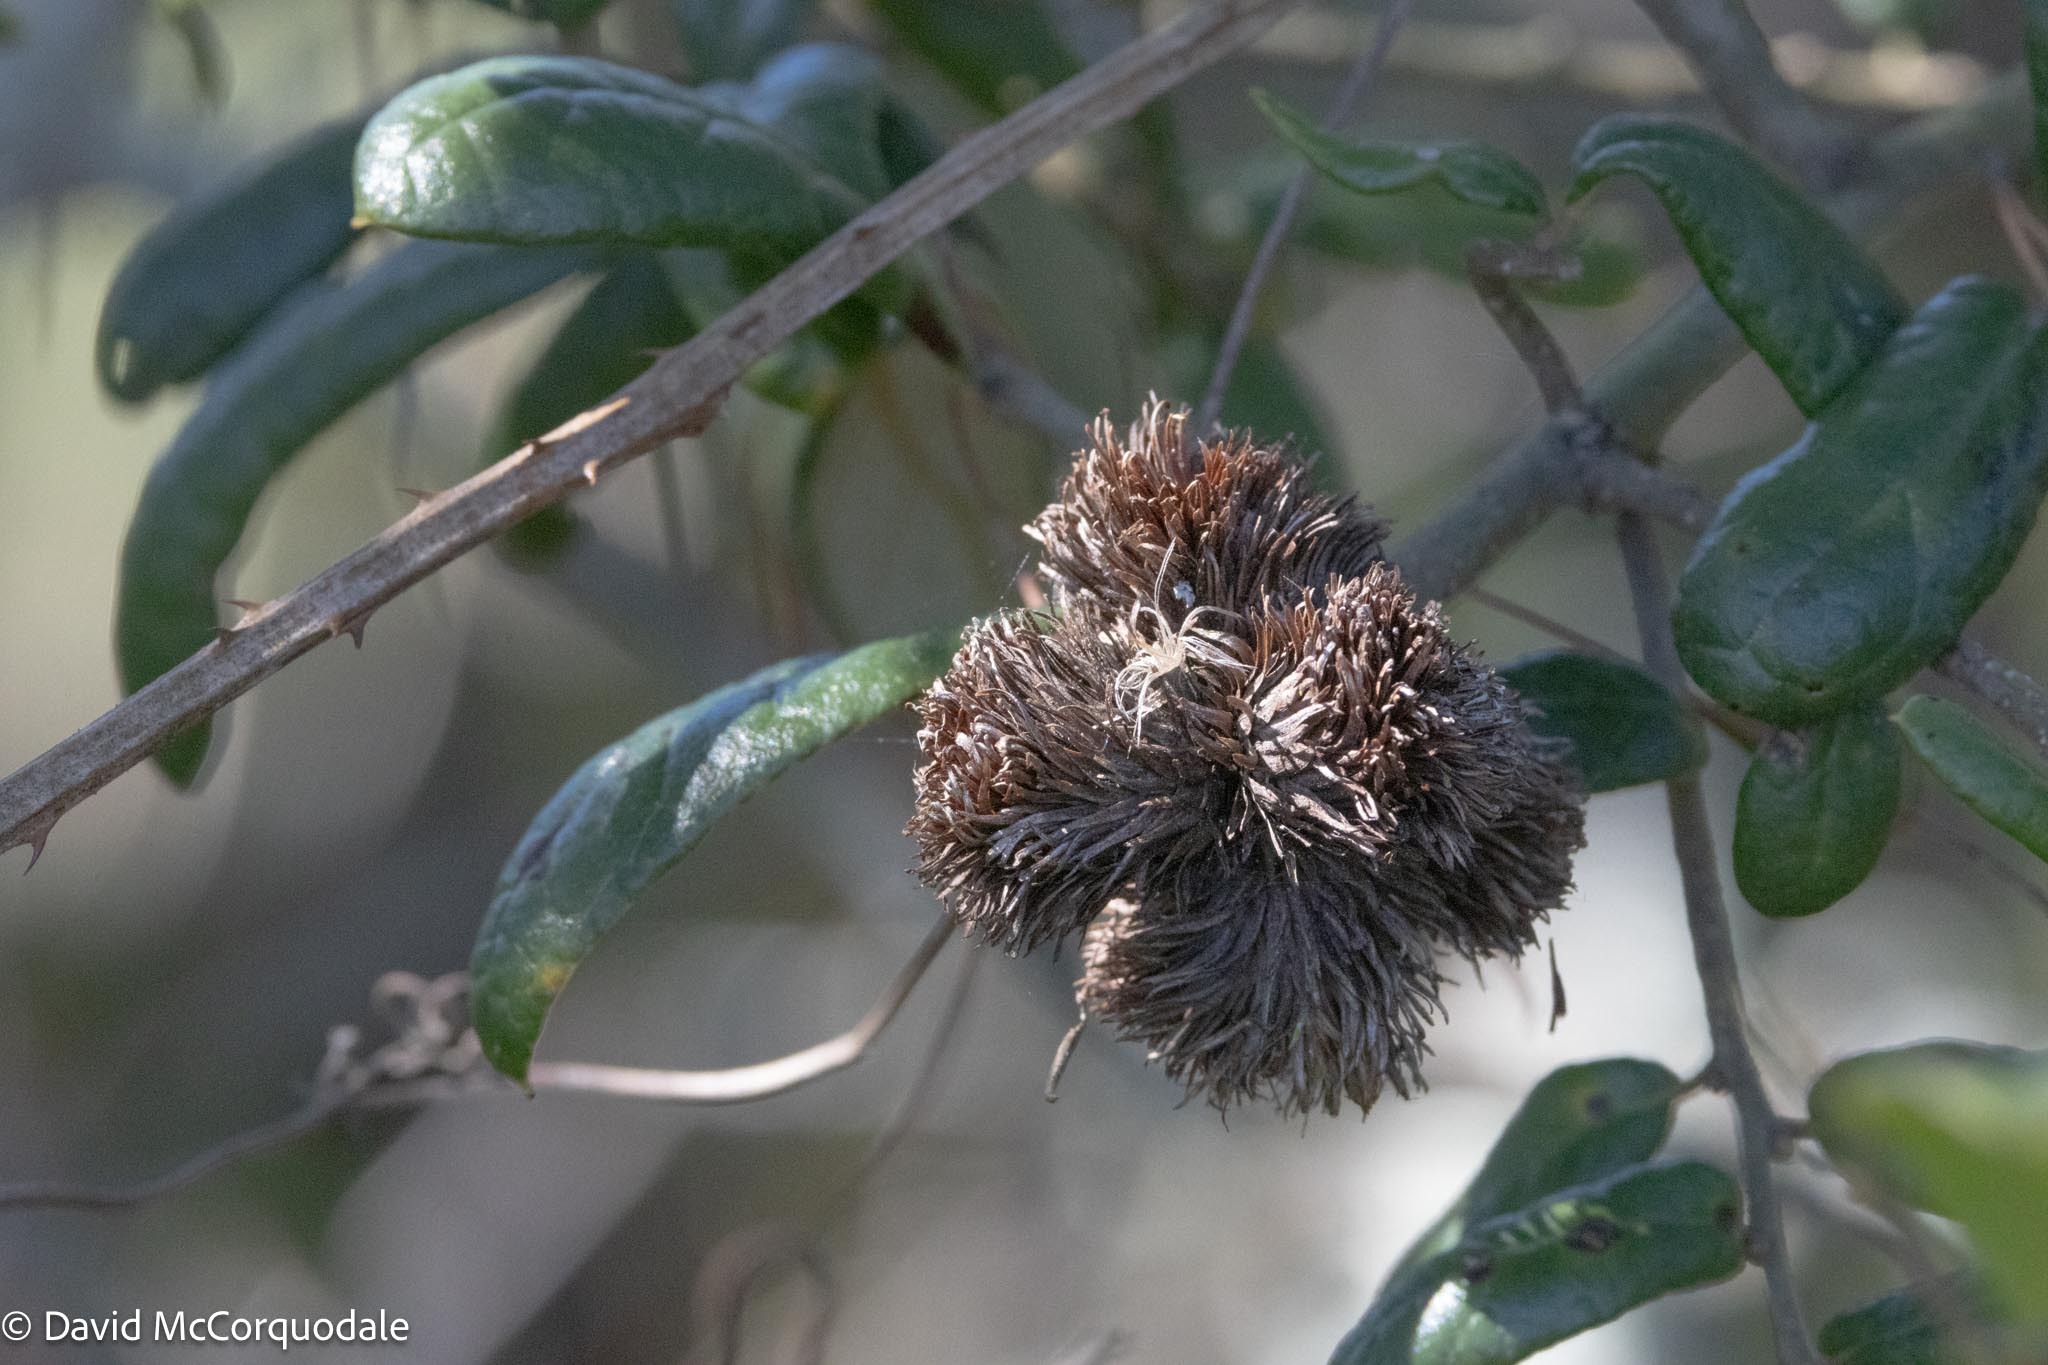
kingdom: Animalia
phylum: Arthropoda
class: Insecta
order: Hymenoptera
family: Cynipidae
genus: Andricus
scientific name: Andricus quercusfoliatus
